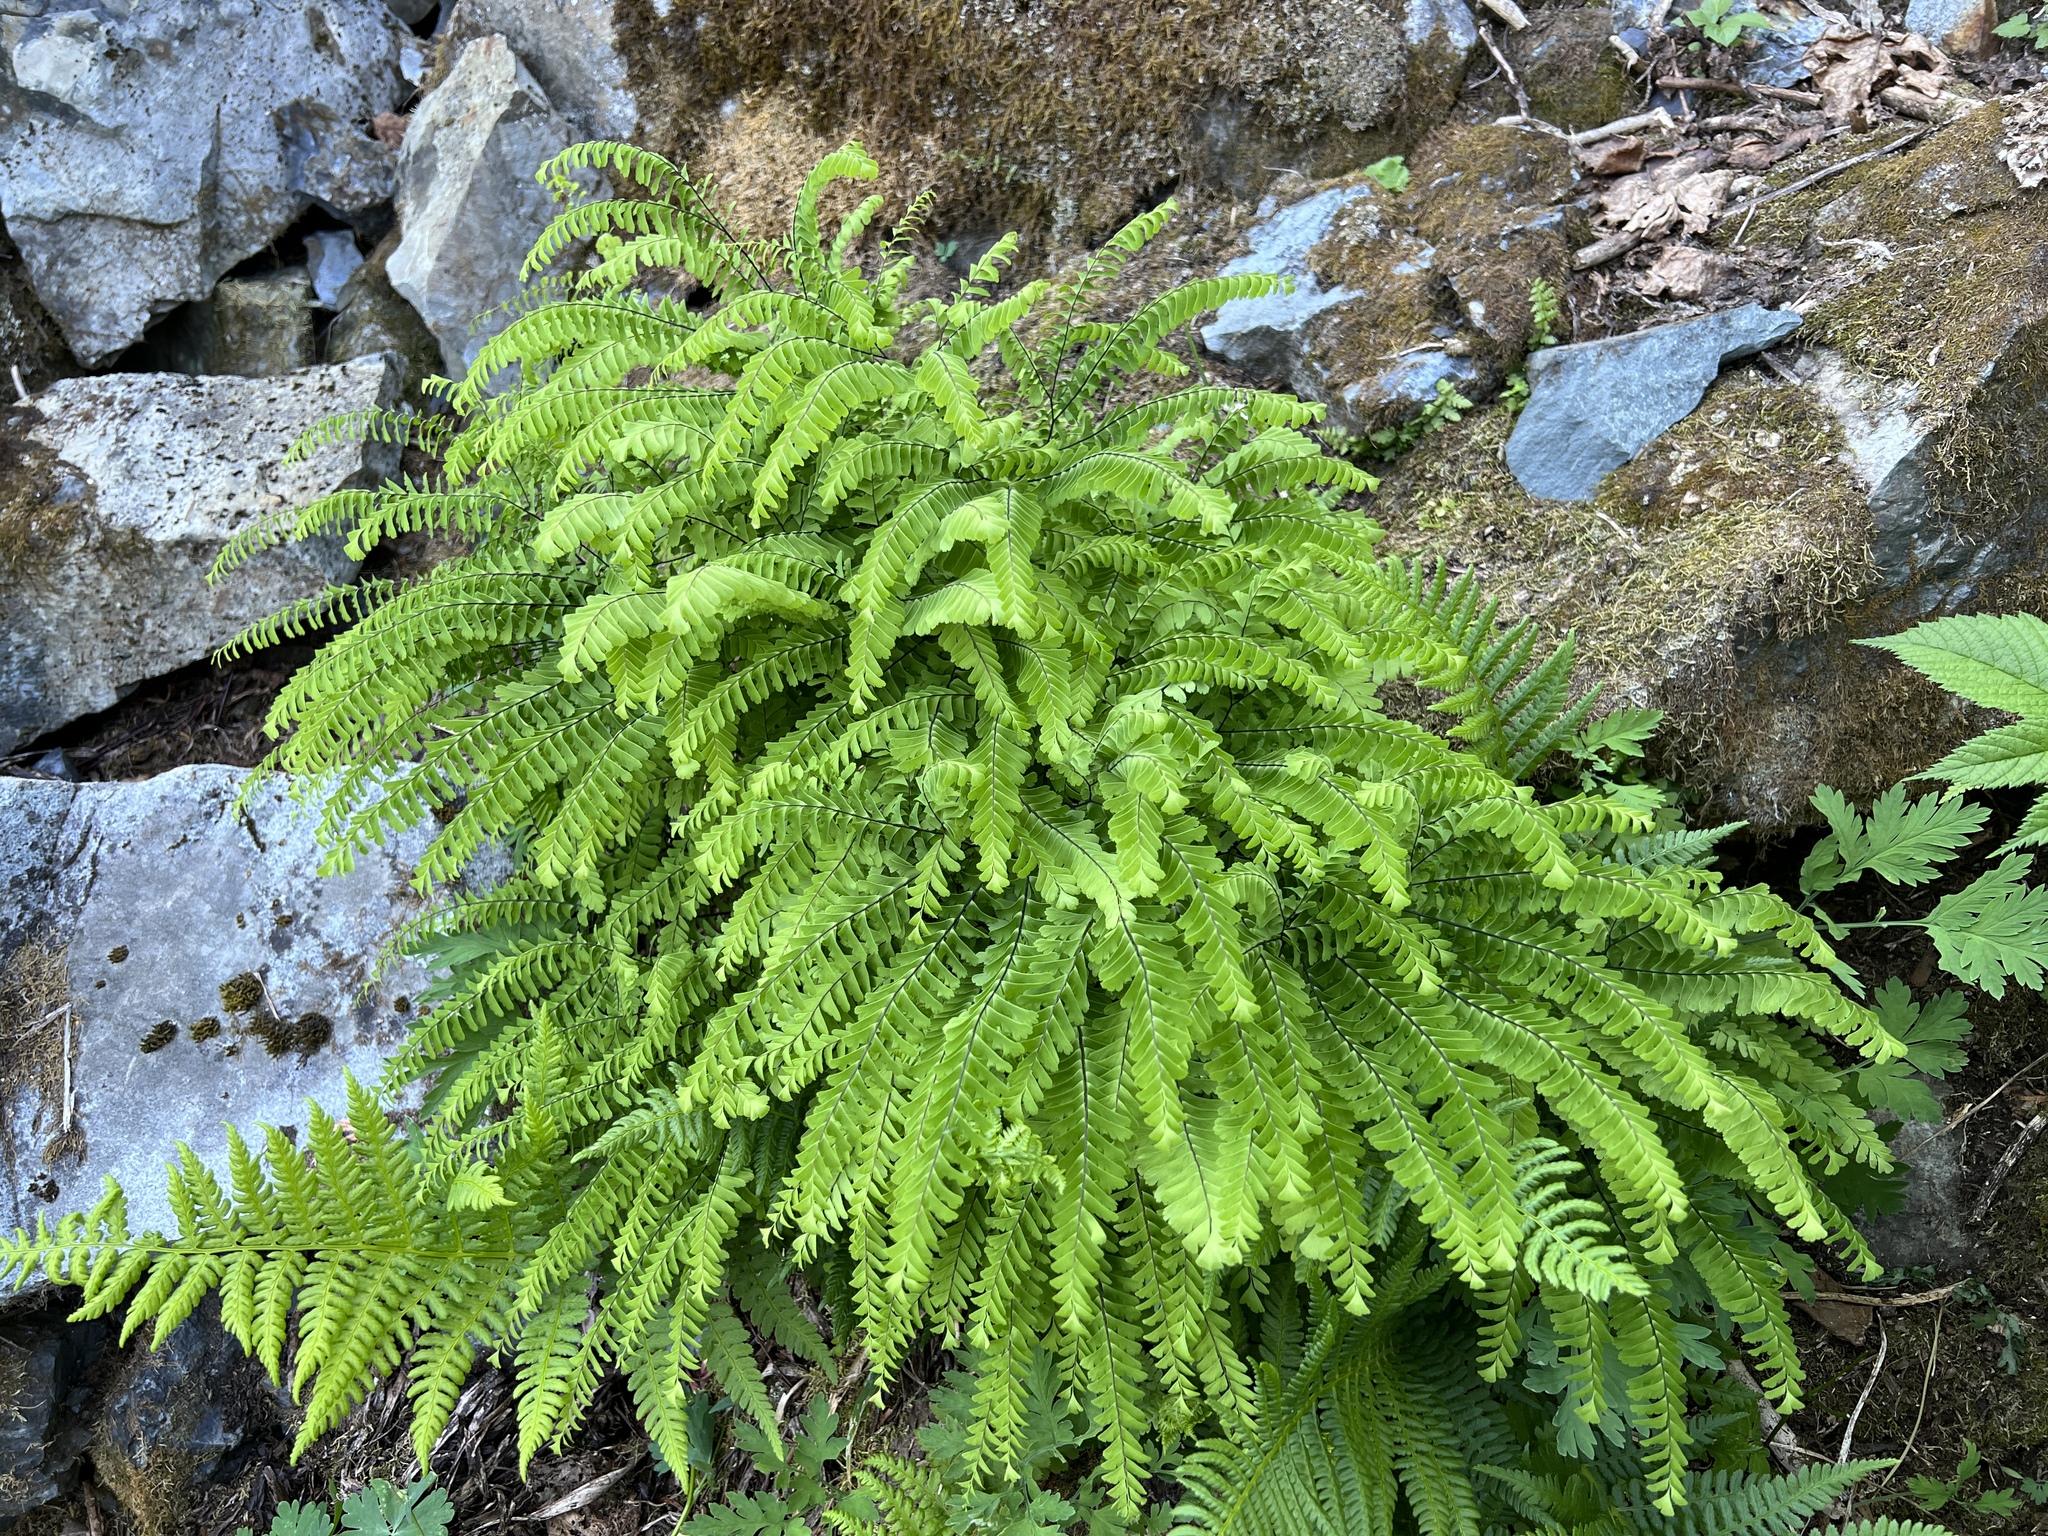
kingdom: Plantae
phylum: Tracheophyta
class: Polypodiopsida
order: Polypodiales
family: Pteridaceae
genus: Adiantum
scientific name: Adiantum aleuticum
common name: Aleutian maidenhair fern
